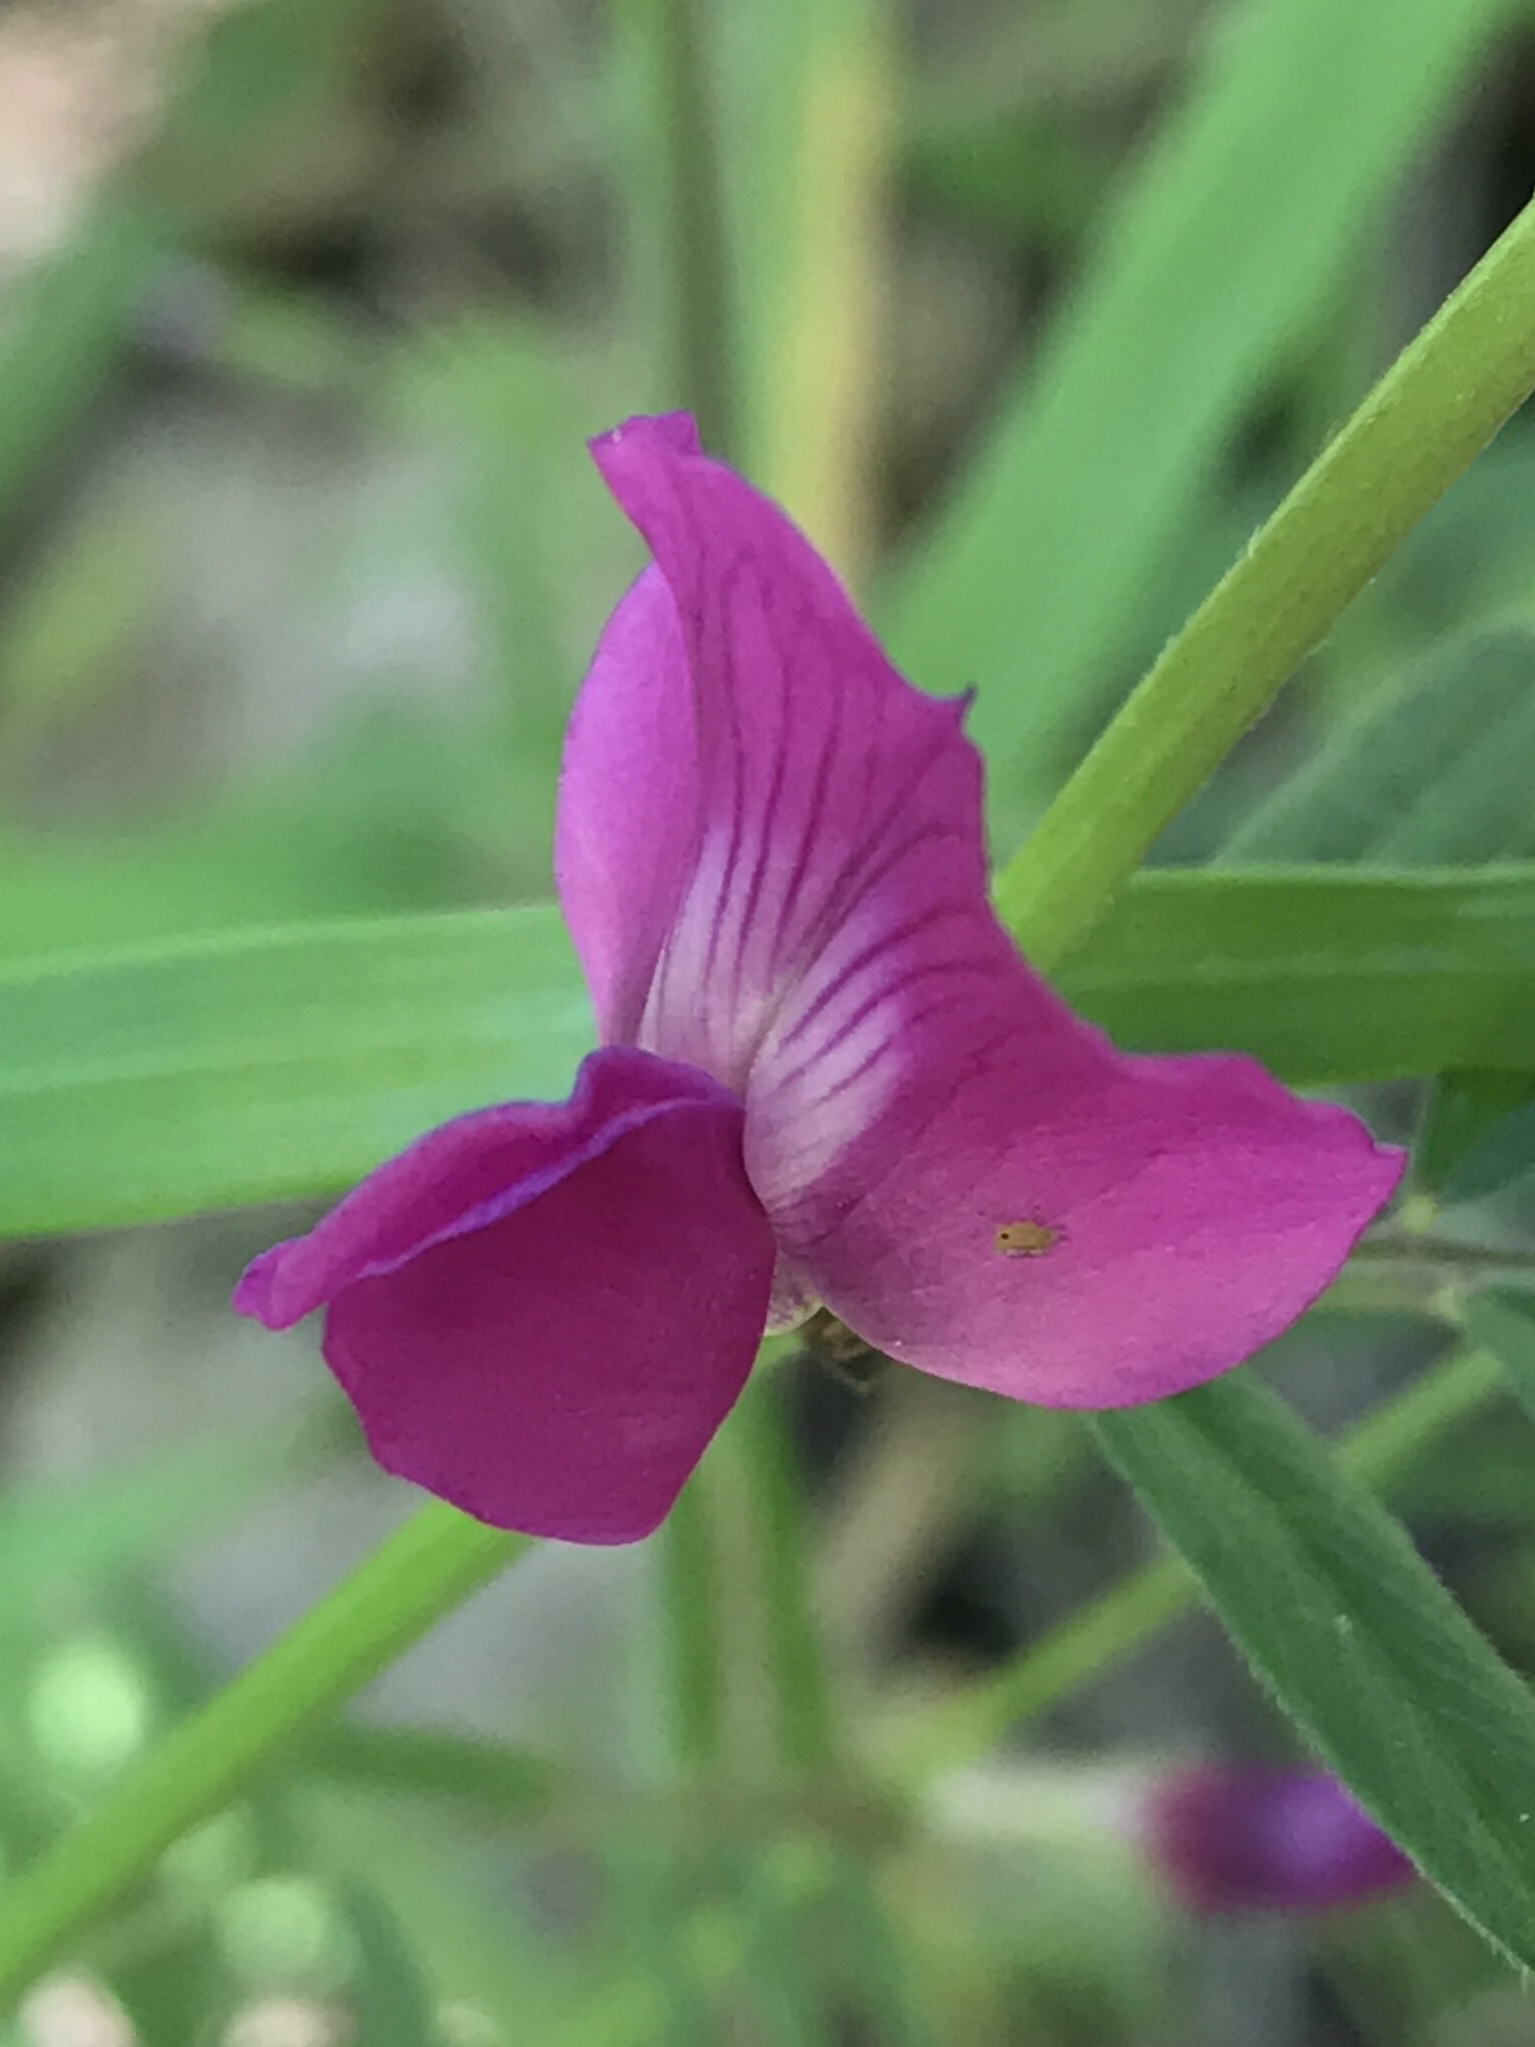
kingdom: Plantae
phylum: Tracheophyta
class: Magnoliopsida
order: Fabales
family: Fabaceae
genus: Vicia
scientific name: Vicia sativa
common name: Garden vetch
